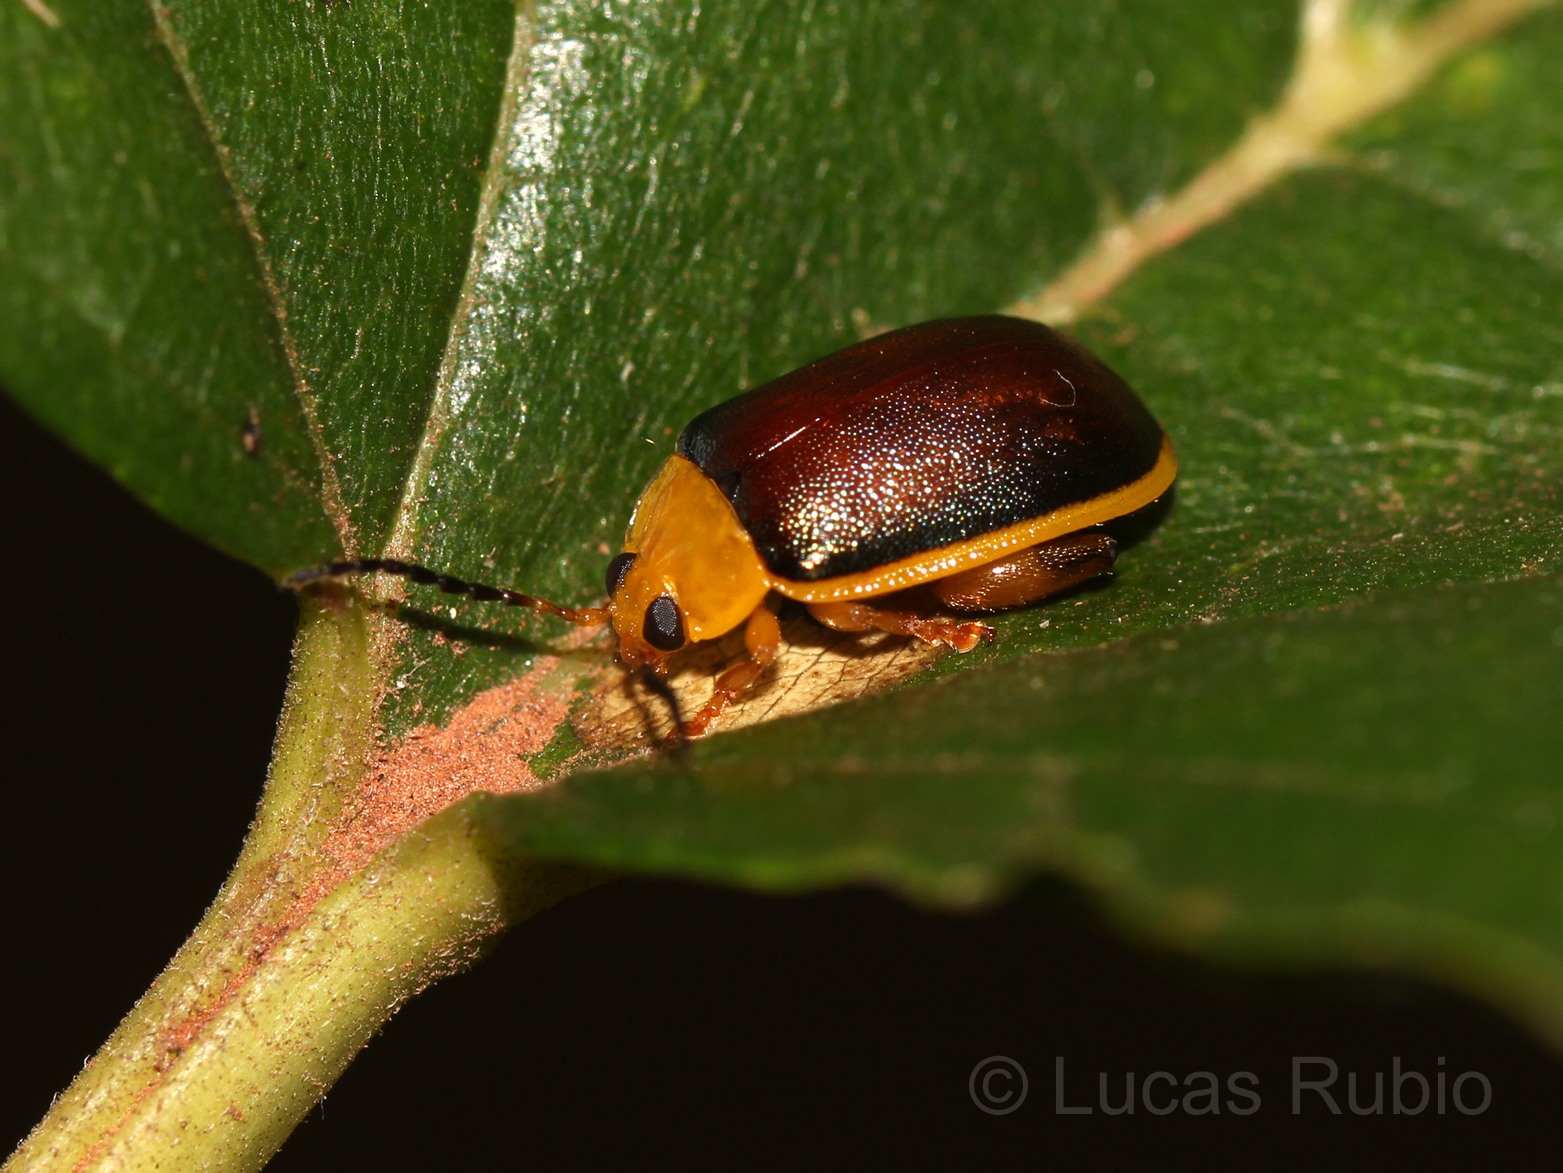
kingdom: Animalia
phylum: Arthropoda
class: Insecta
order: Coleoptera
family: Chrysomelidae
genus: Paranaita
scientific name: Paranaita
